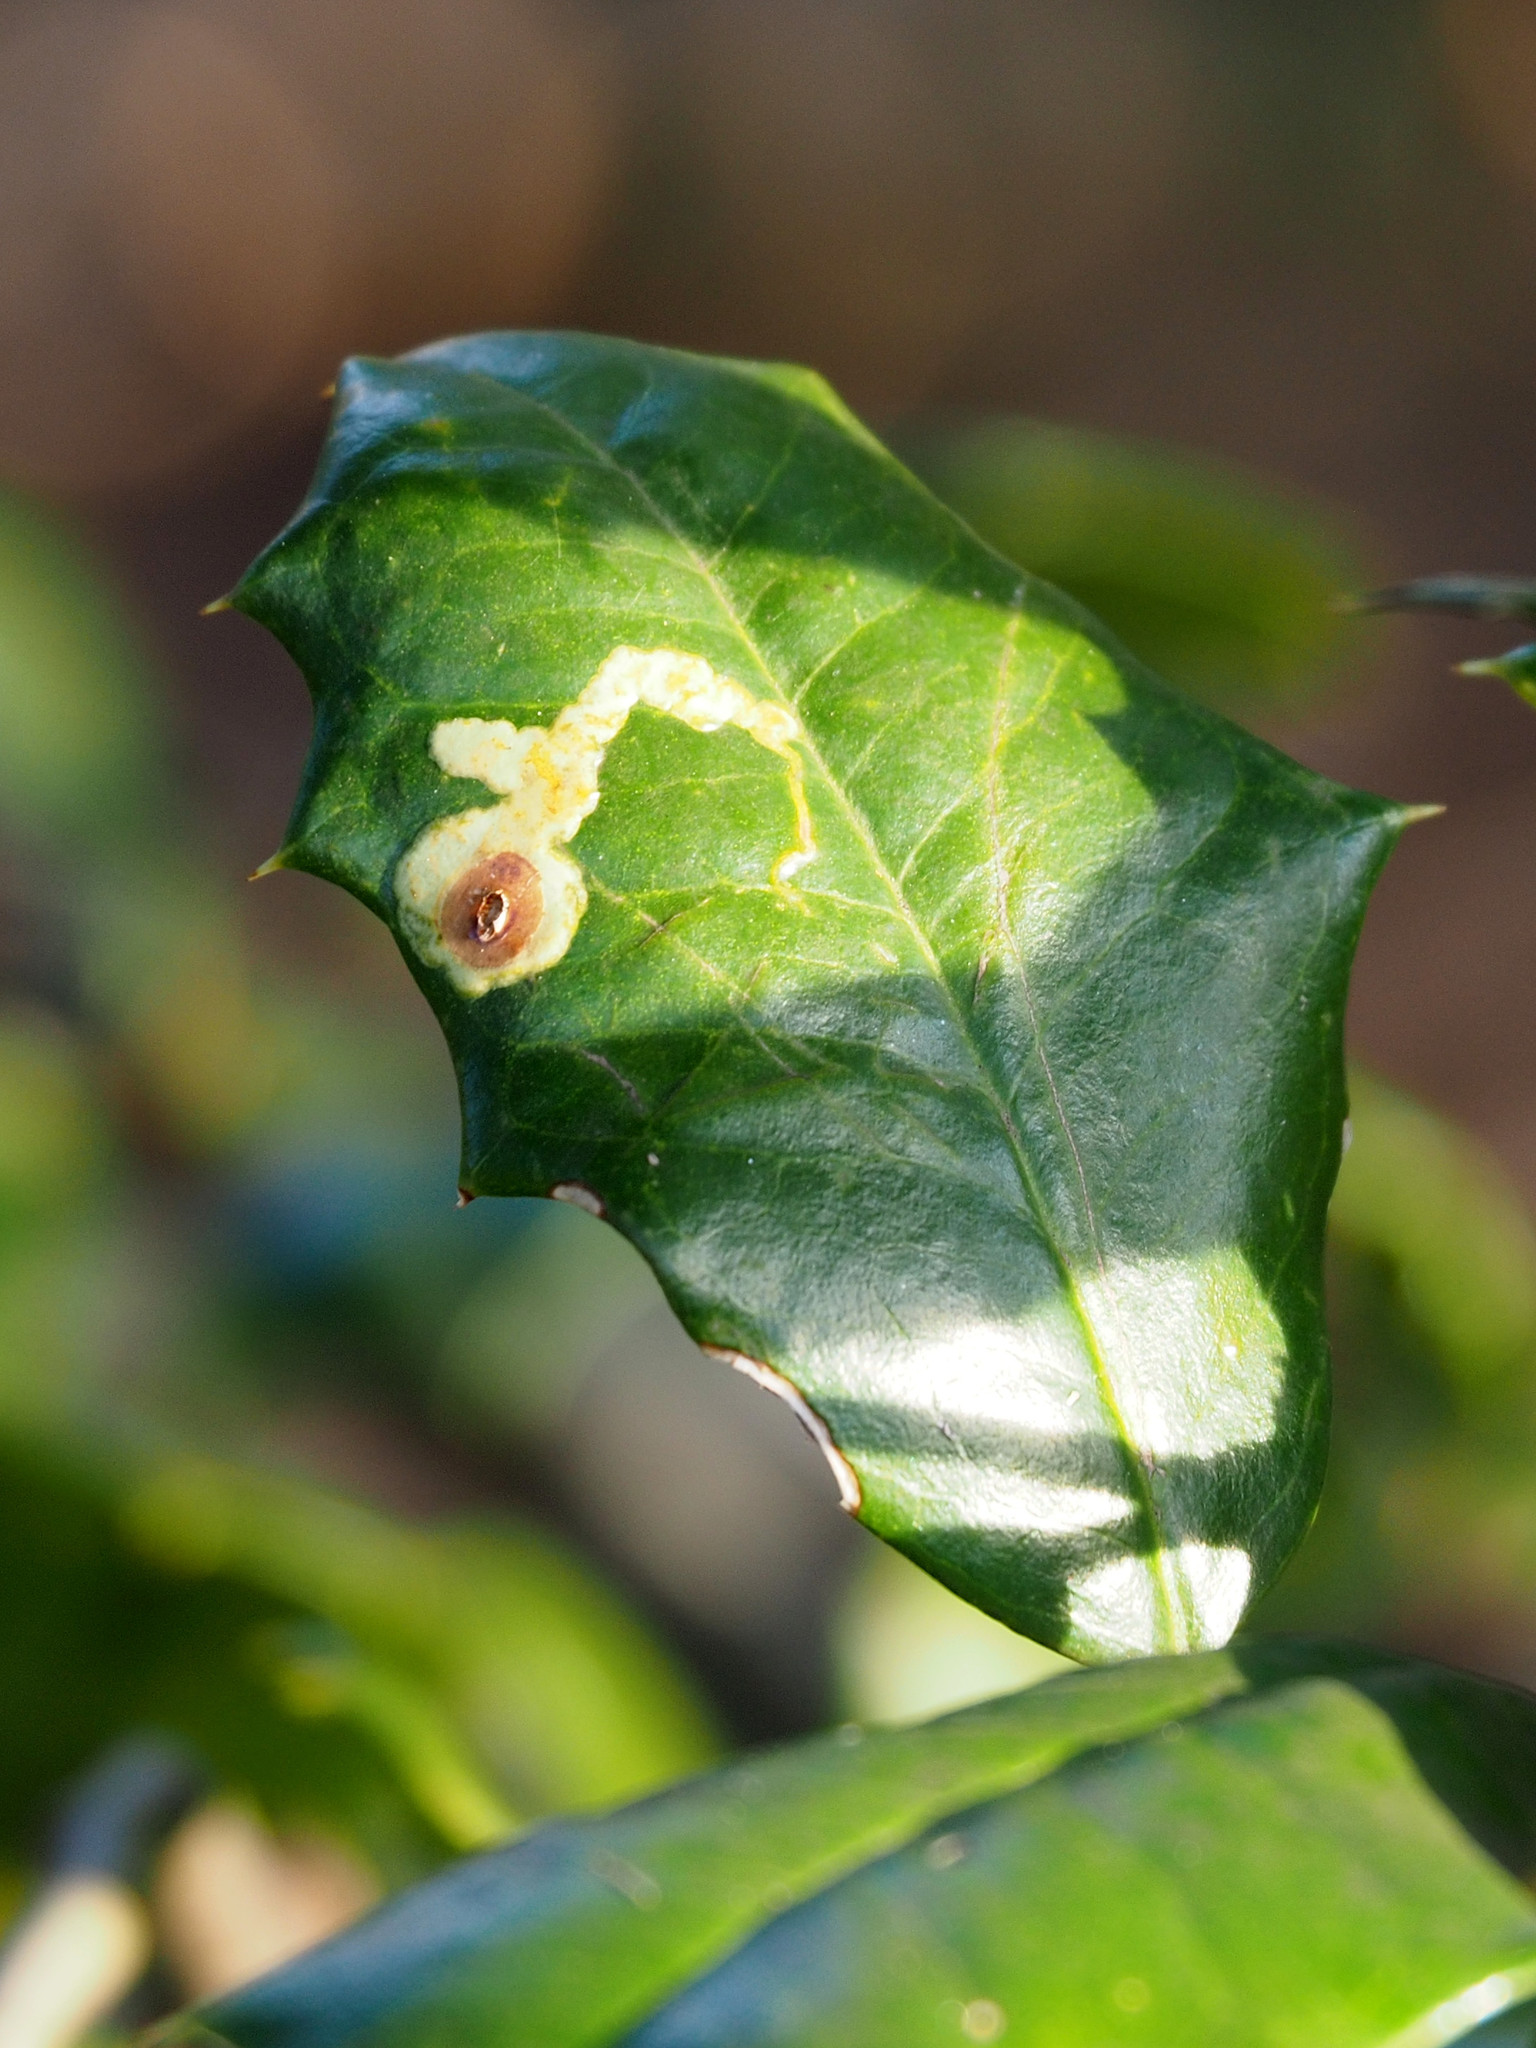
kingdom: Animalia
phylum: Arthropoda
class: Insecta
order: Diptera
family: Agromyzidae
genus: Phytomyza
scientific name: Phytomyza ilicicola
